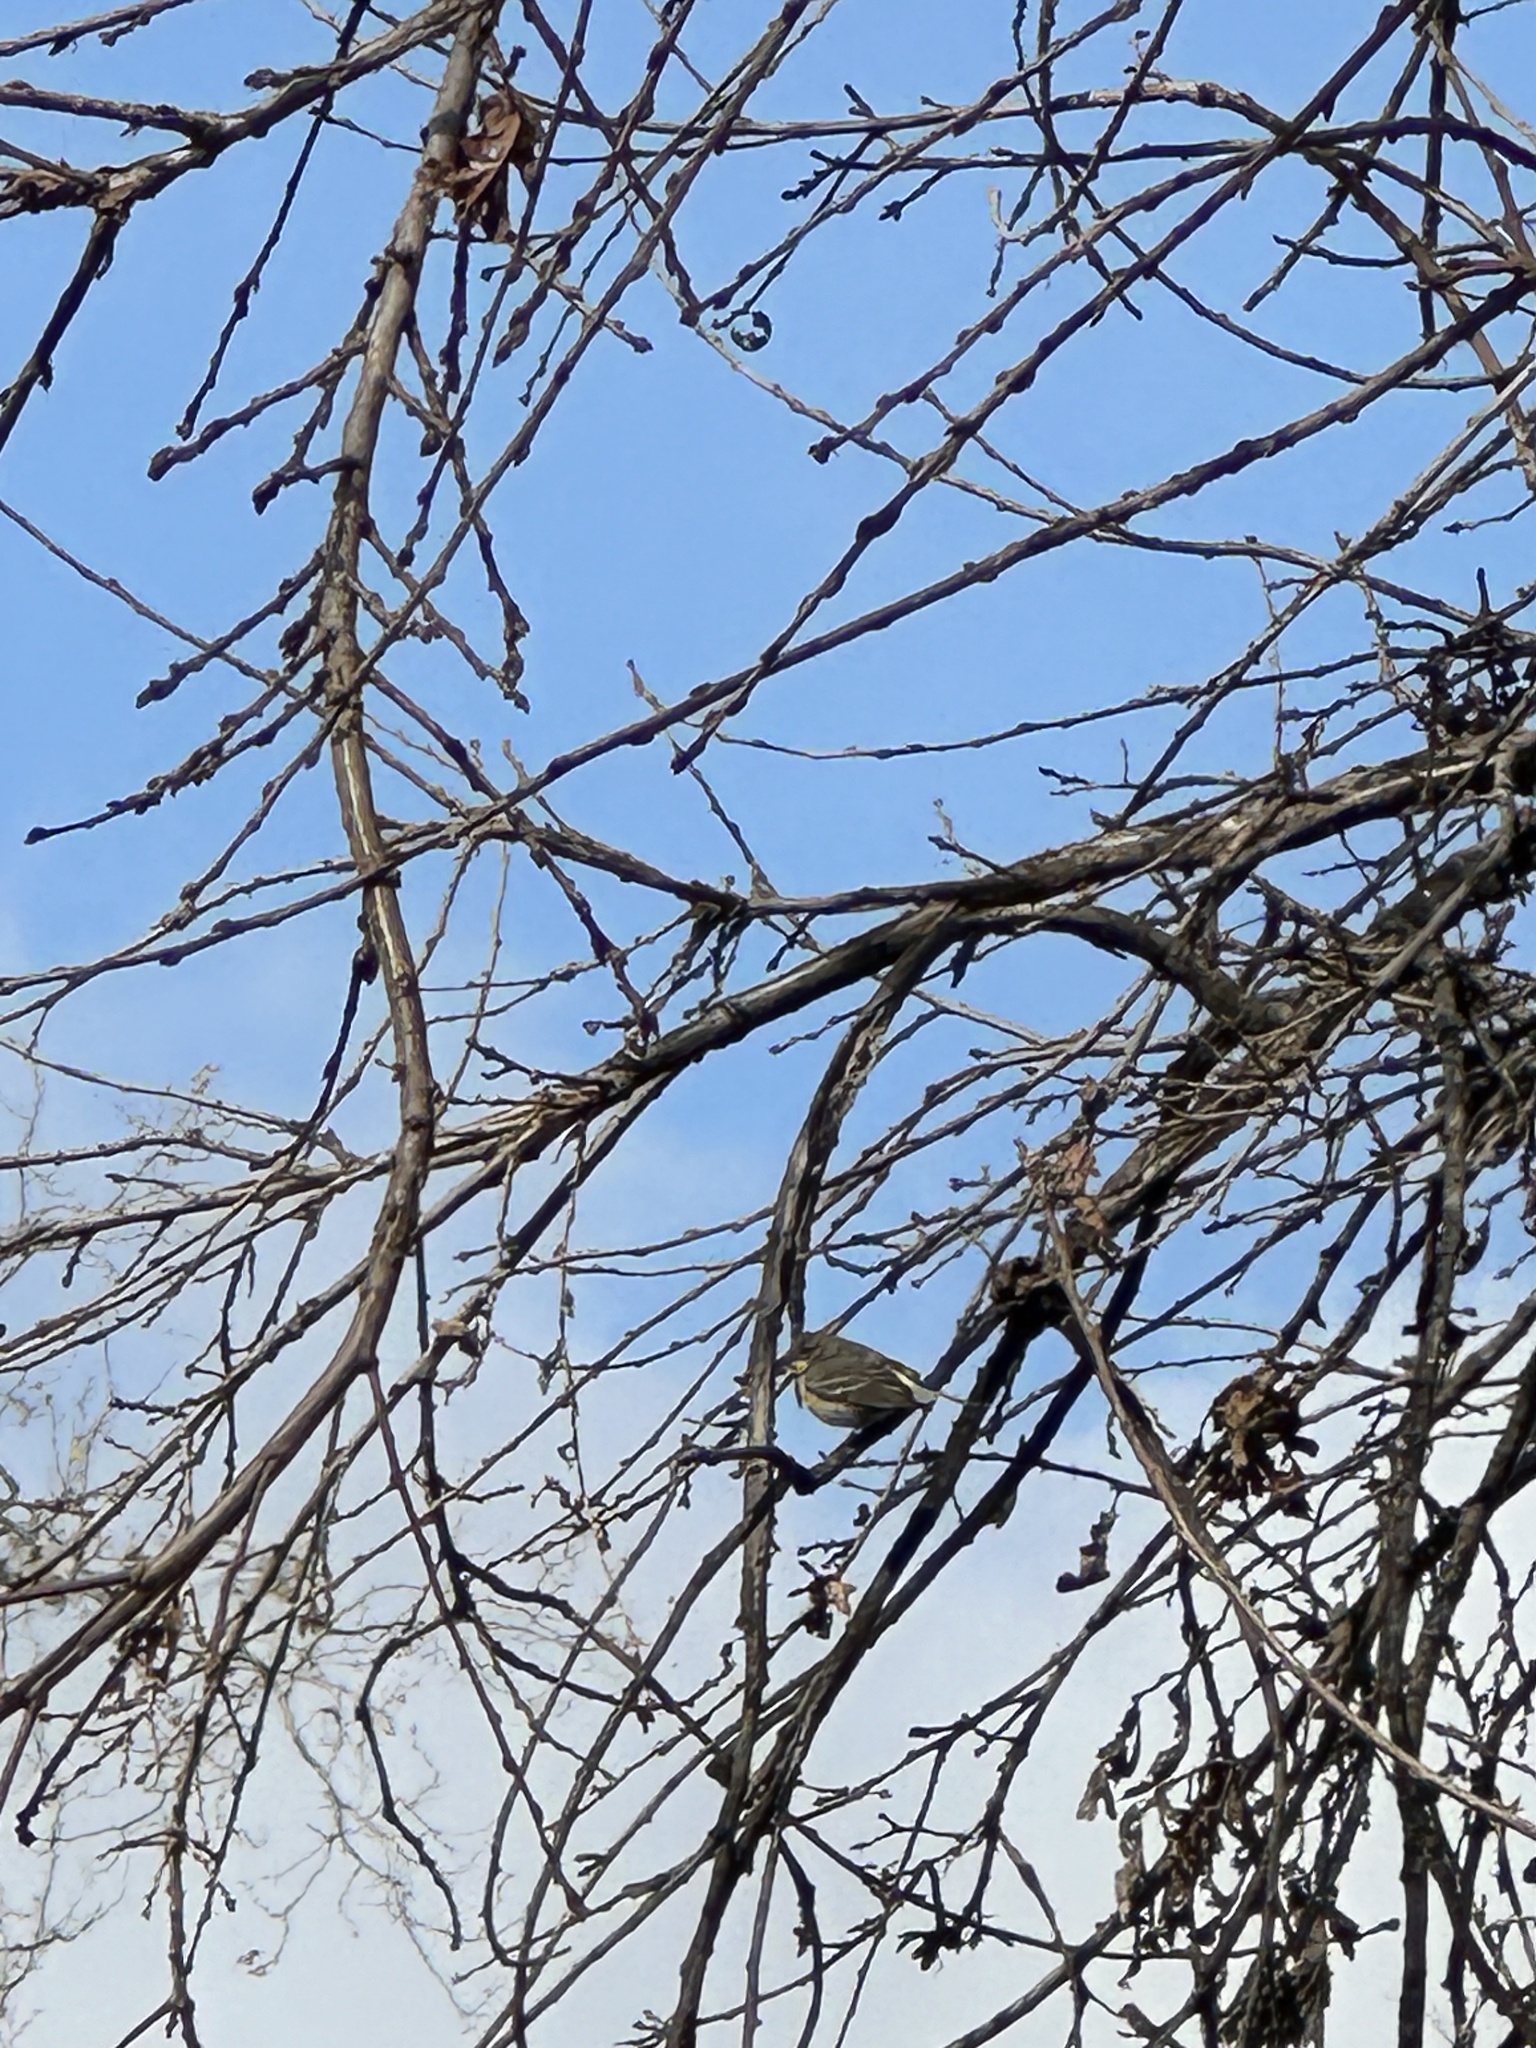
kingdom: Animalia
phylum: Chordata
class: Aves
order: Passeriformes
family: Parulidae
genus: Setophaga
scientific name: Setophaga coronata
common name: Myrtle warbler
